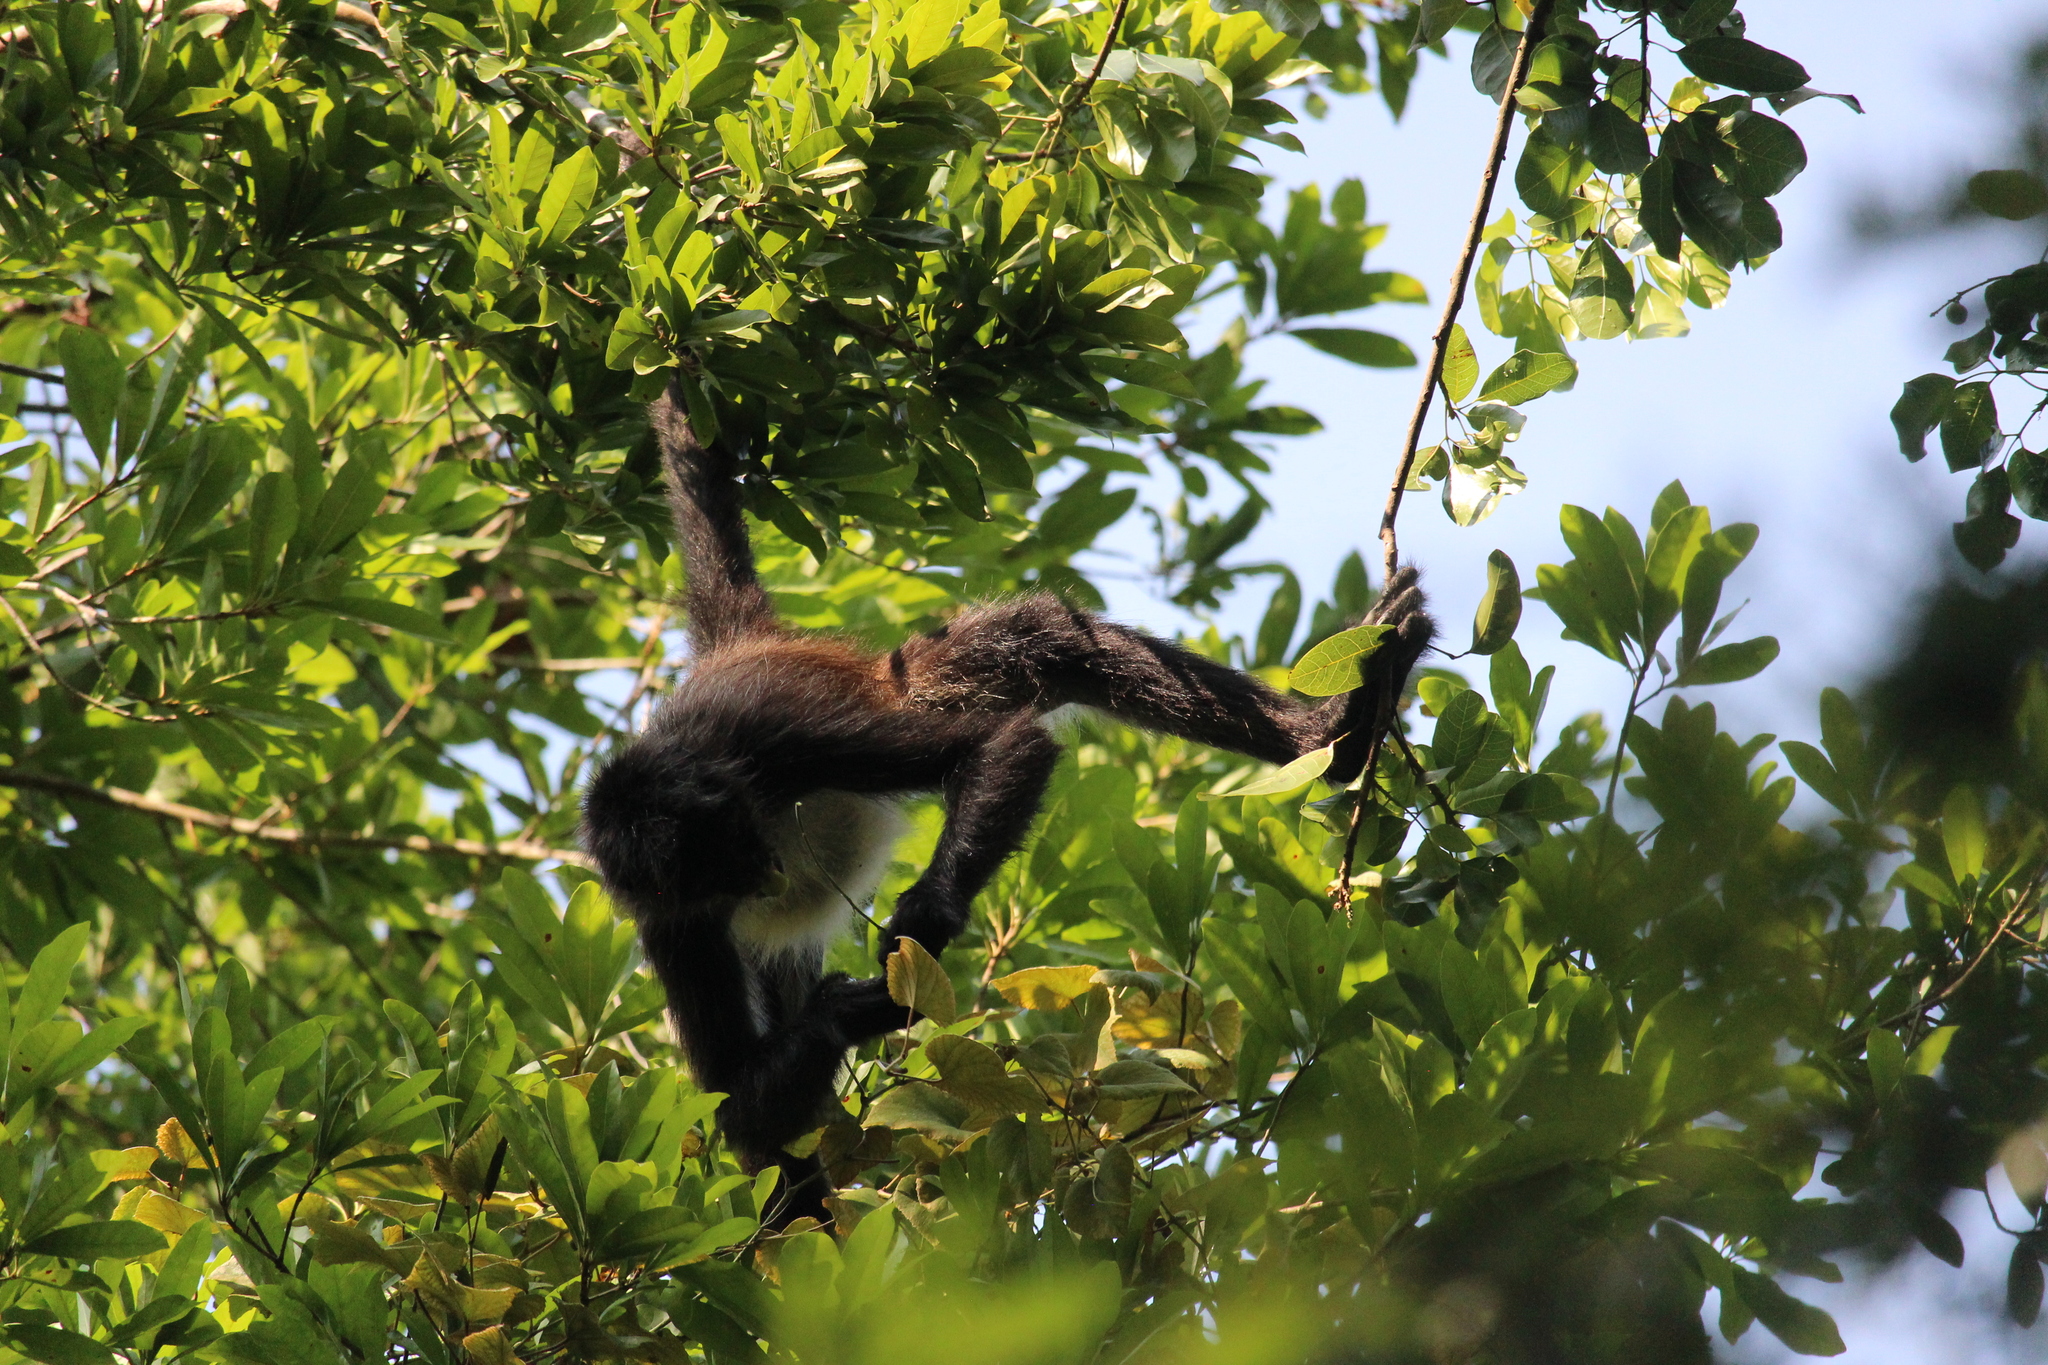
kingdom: Animalia
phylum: Chordata
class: Mammalia
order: Primates
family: Atelidae
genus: Ateles
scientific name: Ateles geoffroyi
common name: Black-handed spider monkey
